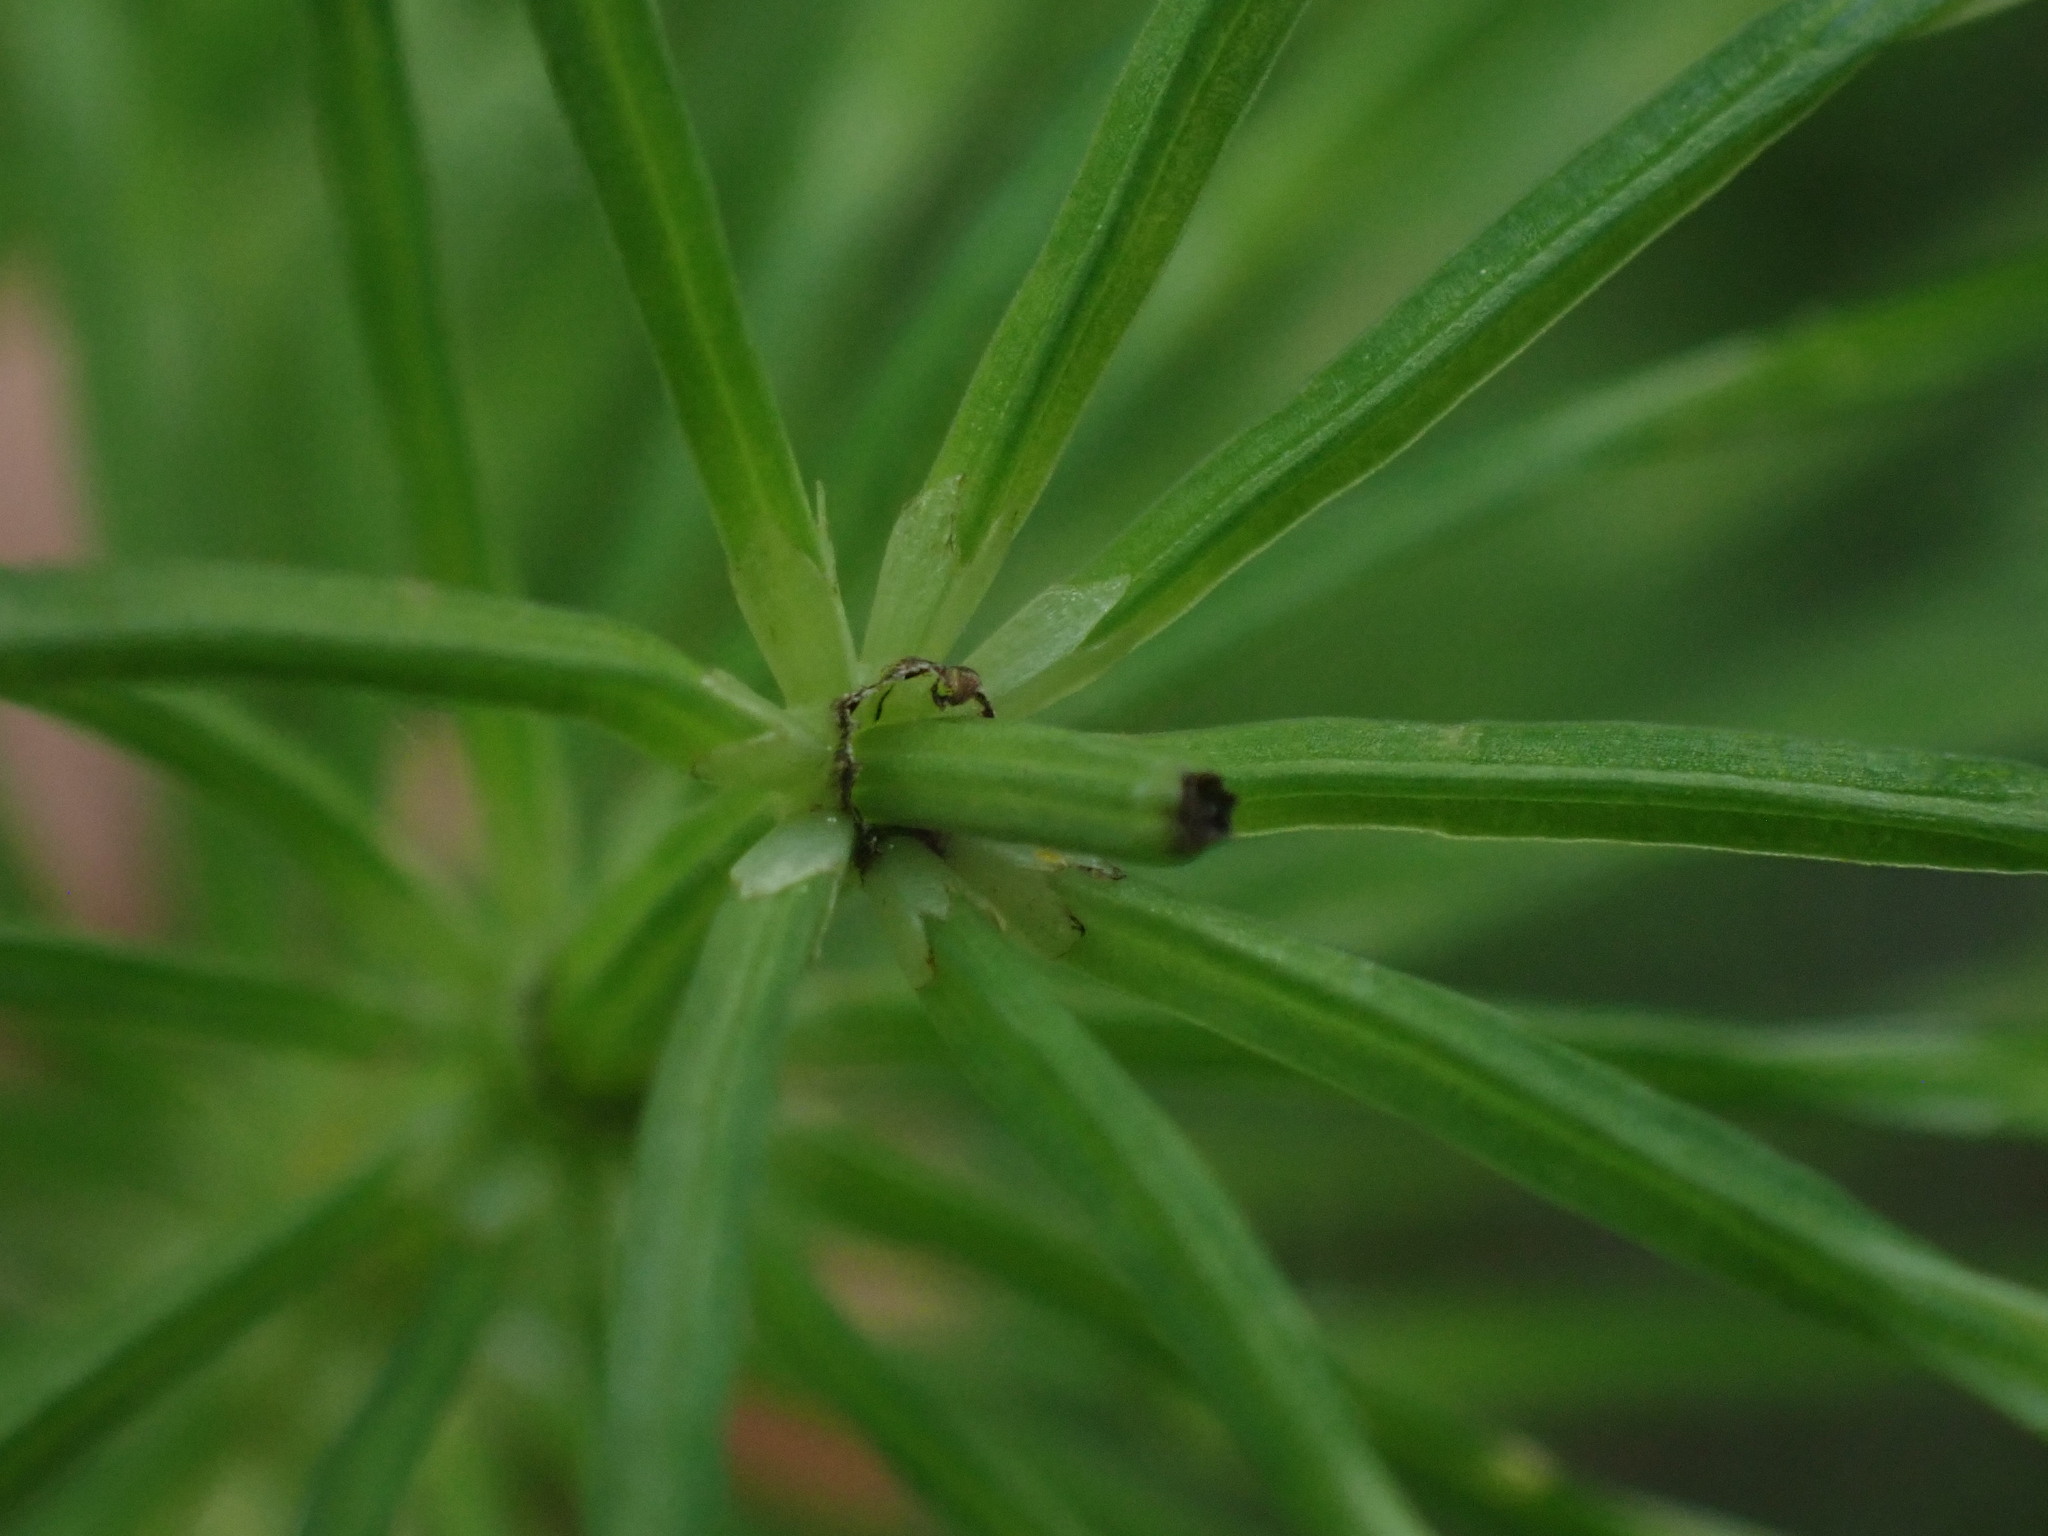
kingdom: Plantae
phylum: Tracheophyta
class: Polypodiopsida
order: Equisetales
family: Equisetaceae
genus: Equisetum
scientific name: Equisetum arvense
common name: Field horsetail
